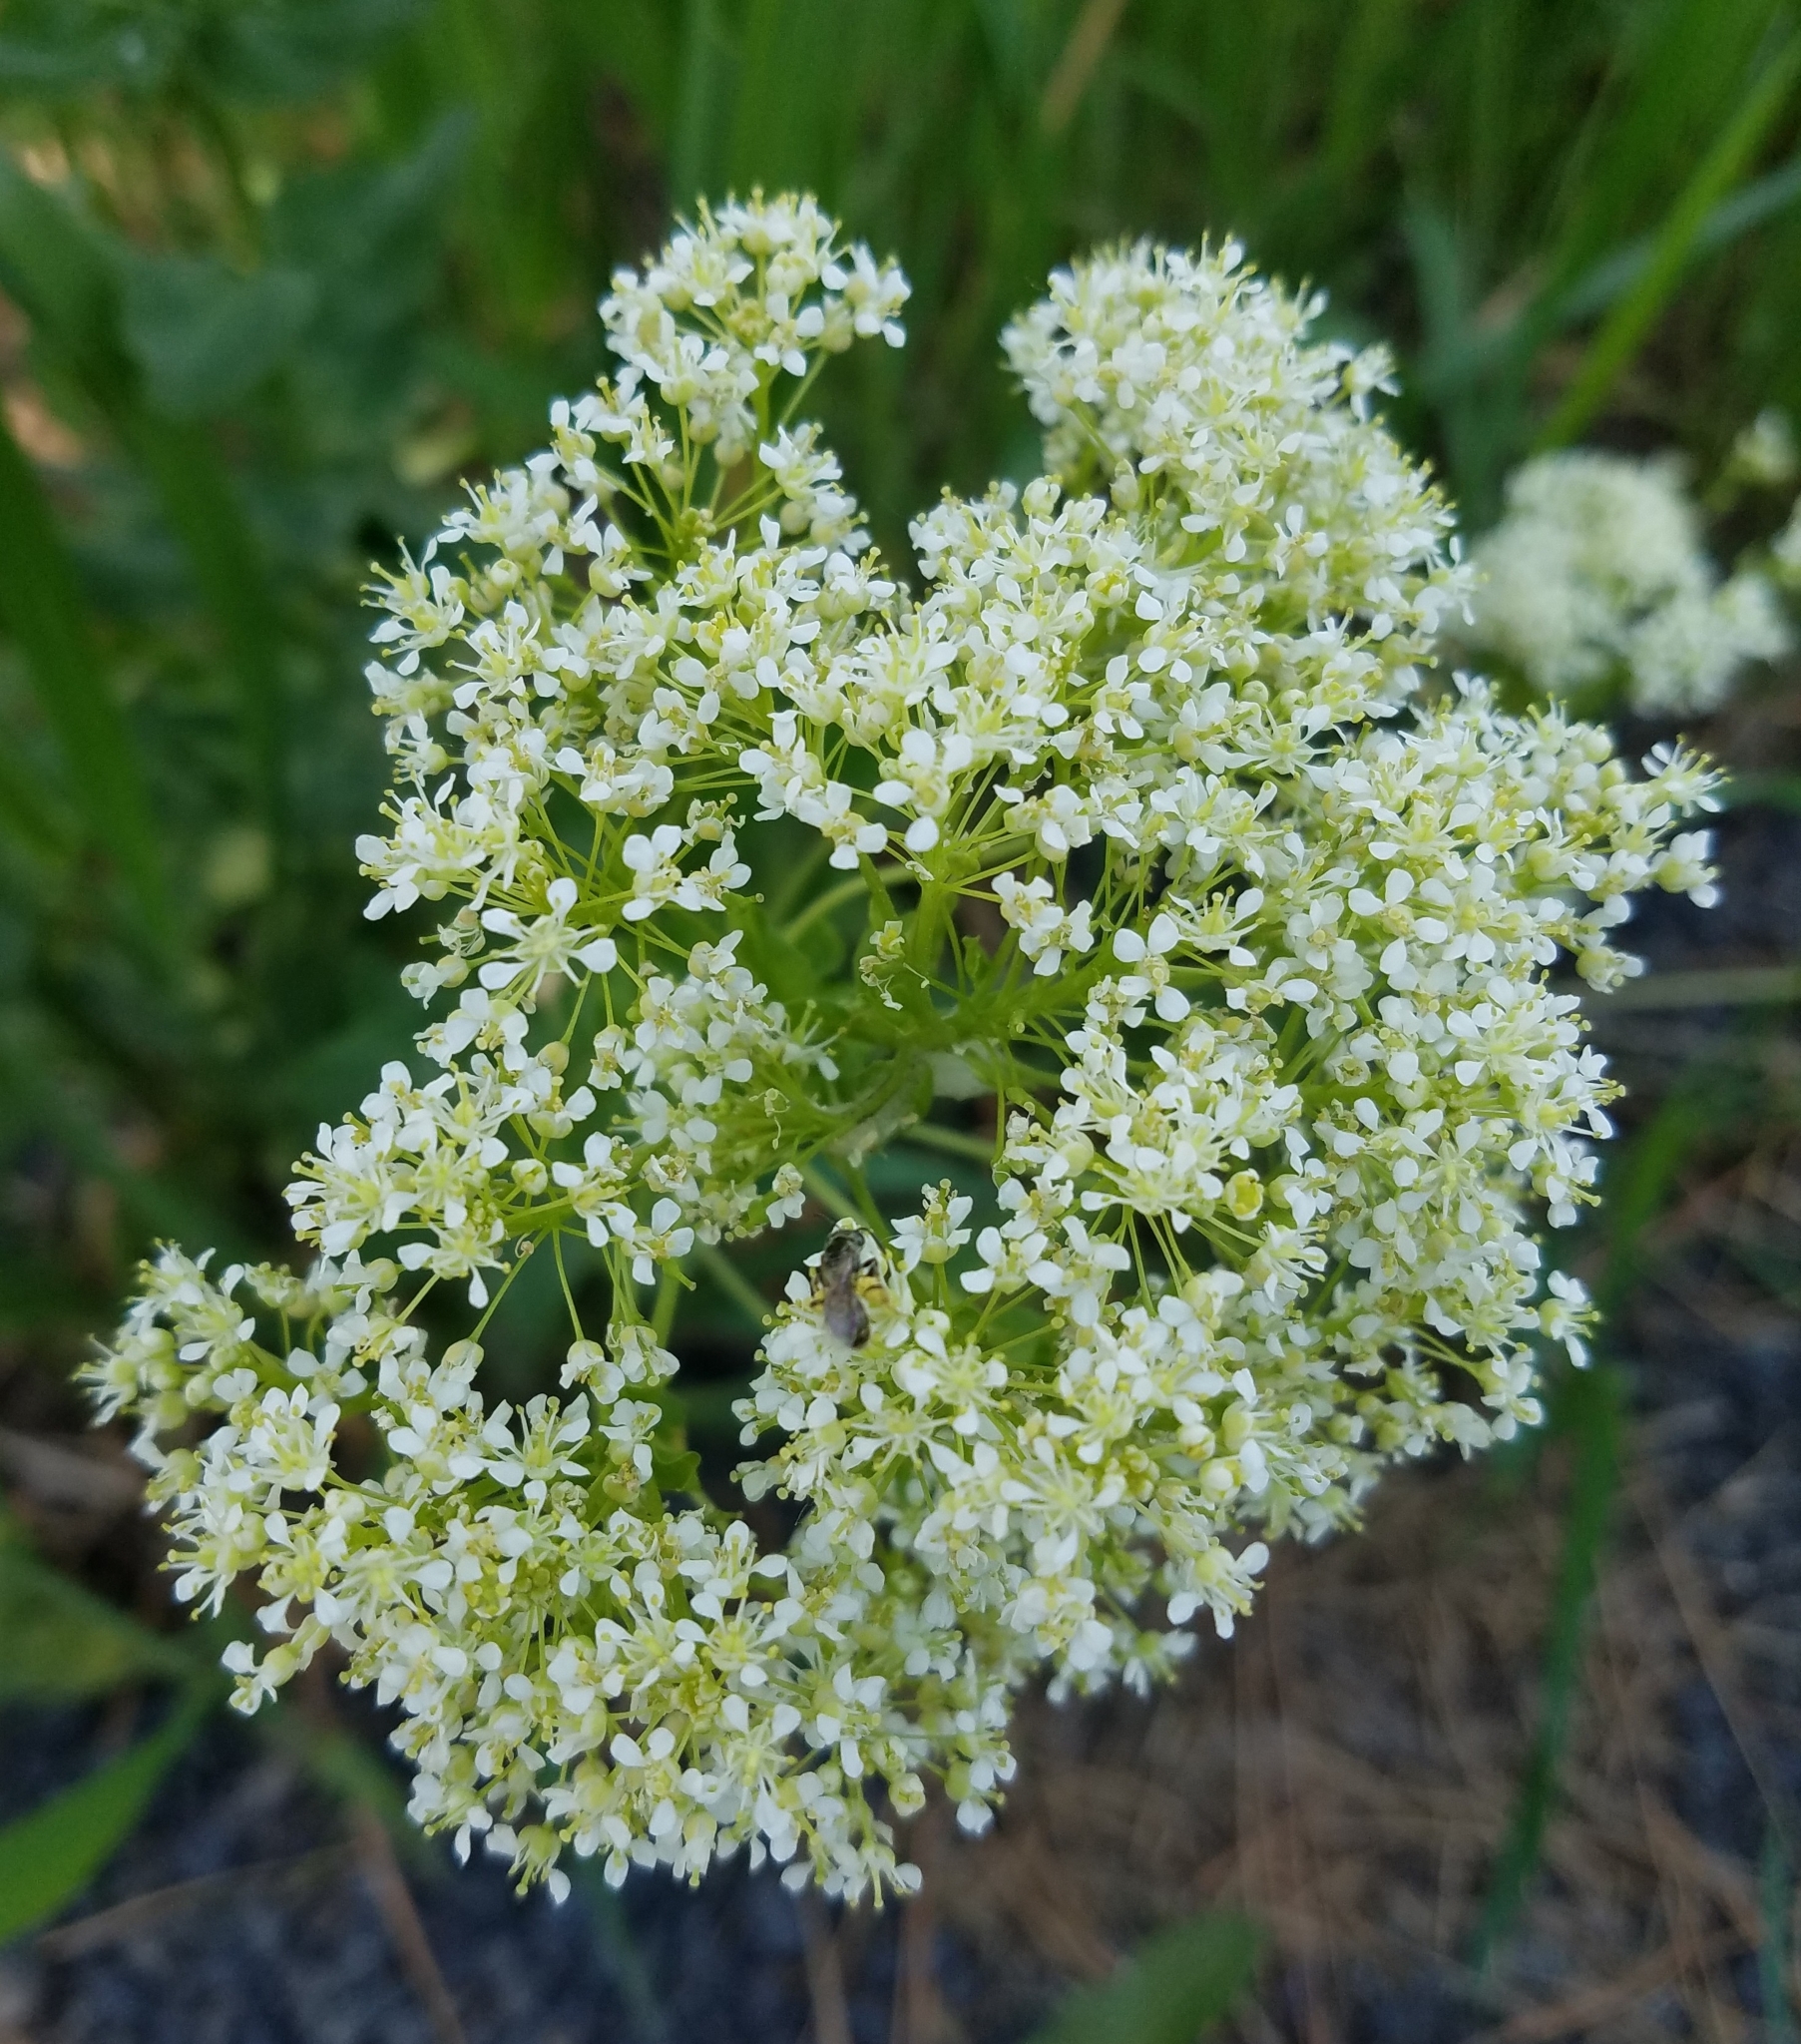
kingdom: Plantae
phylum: Tracheophyta
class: Magnoliopsida
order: Brassicales
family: Brassicaceae
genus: Lepidium
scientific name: Lepidium draba
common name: Hoary cress
